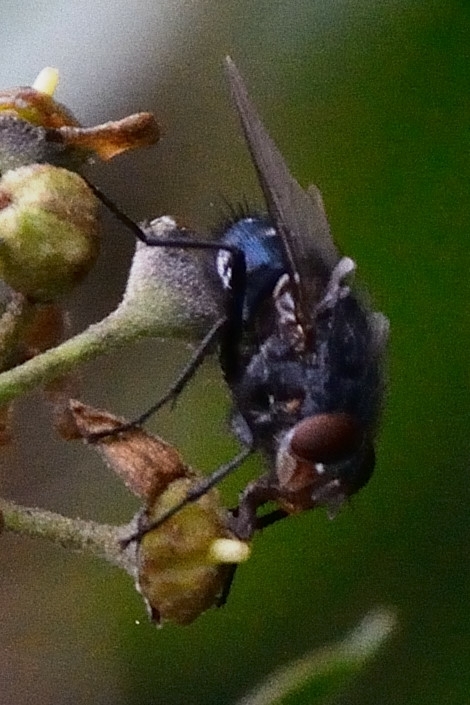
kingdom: Animalia
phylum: Arthropoda
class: Insecta
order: Diptera
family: Calliphoridae
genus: Calliphora
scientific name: Calliphora vicina
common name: Common blow flie
